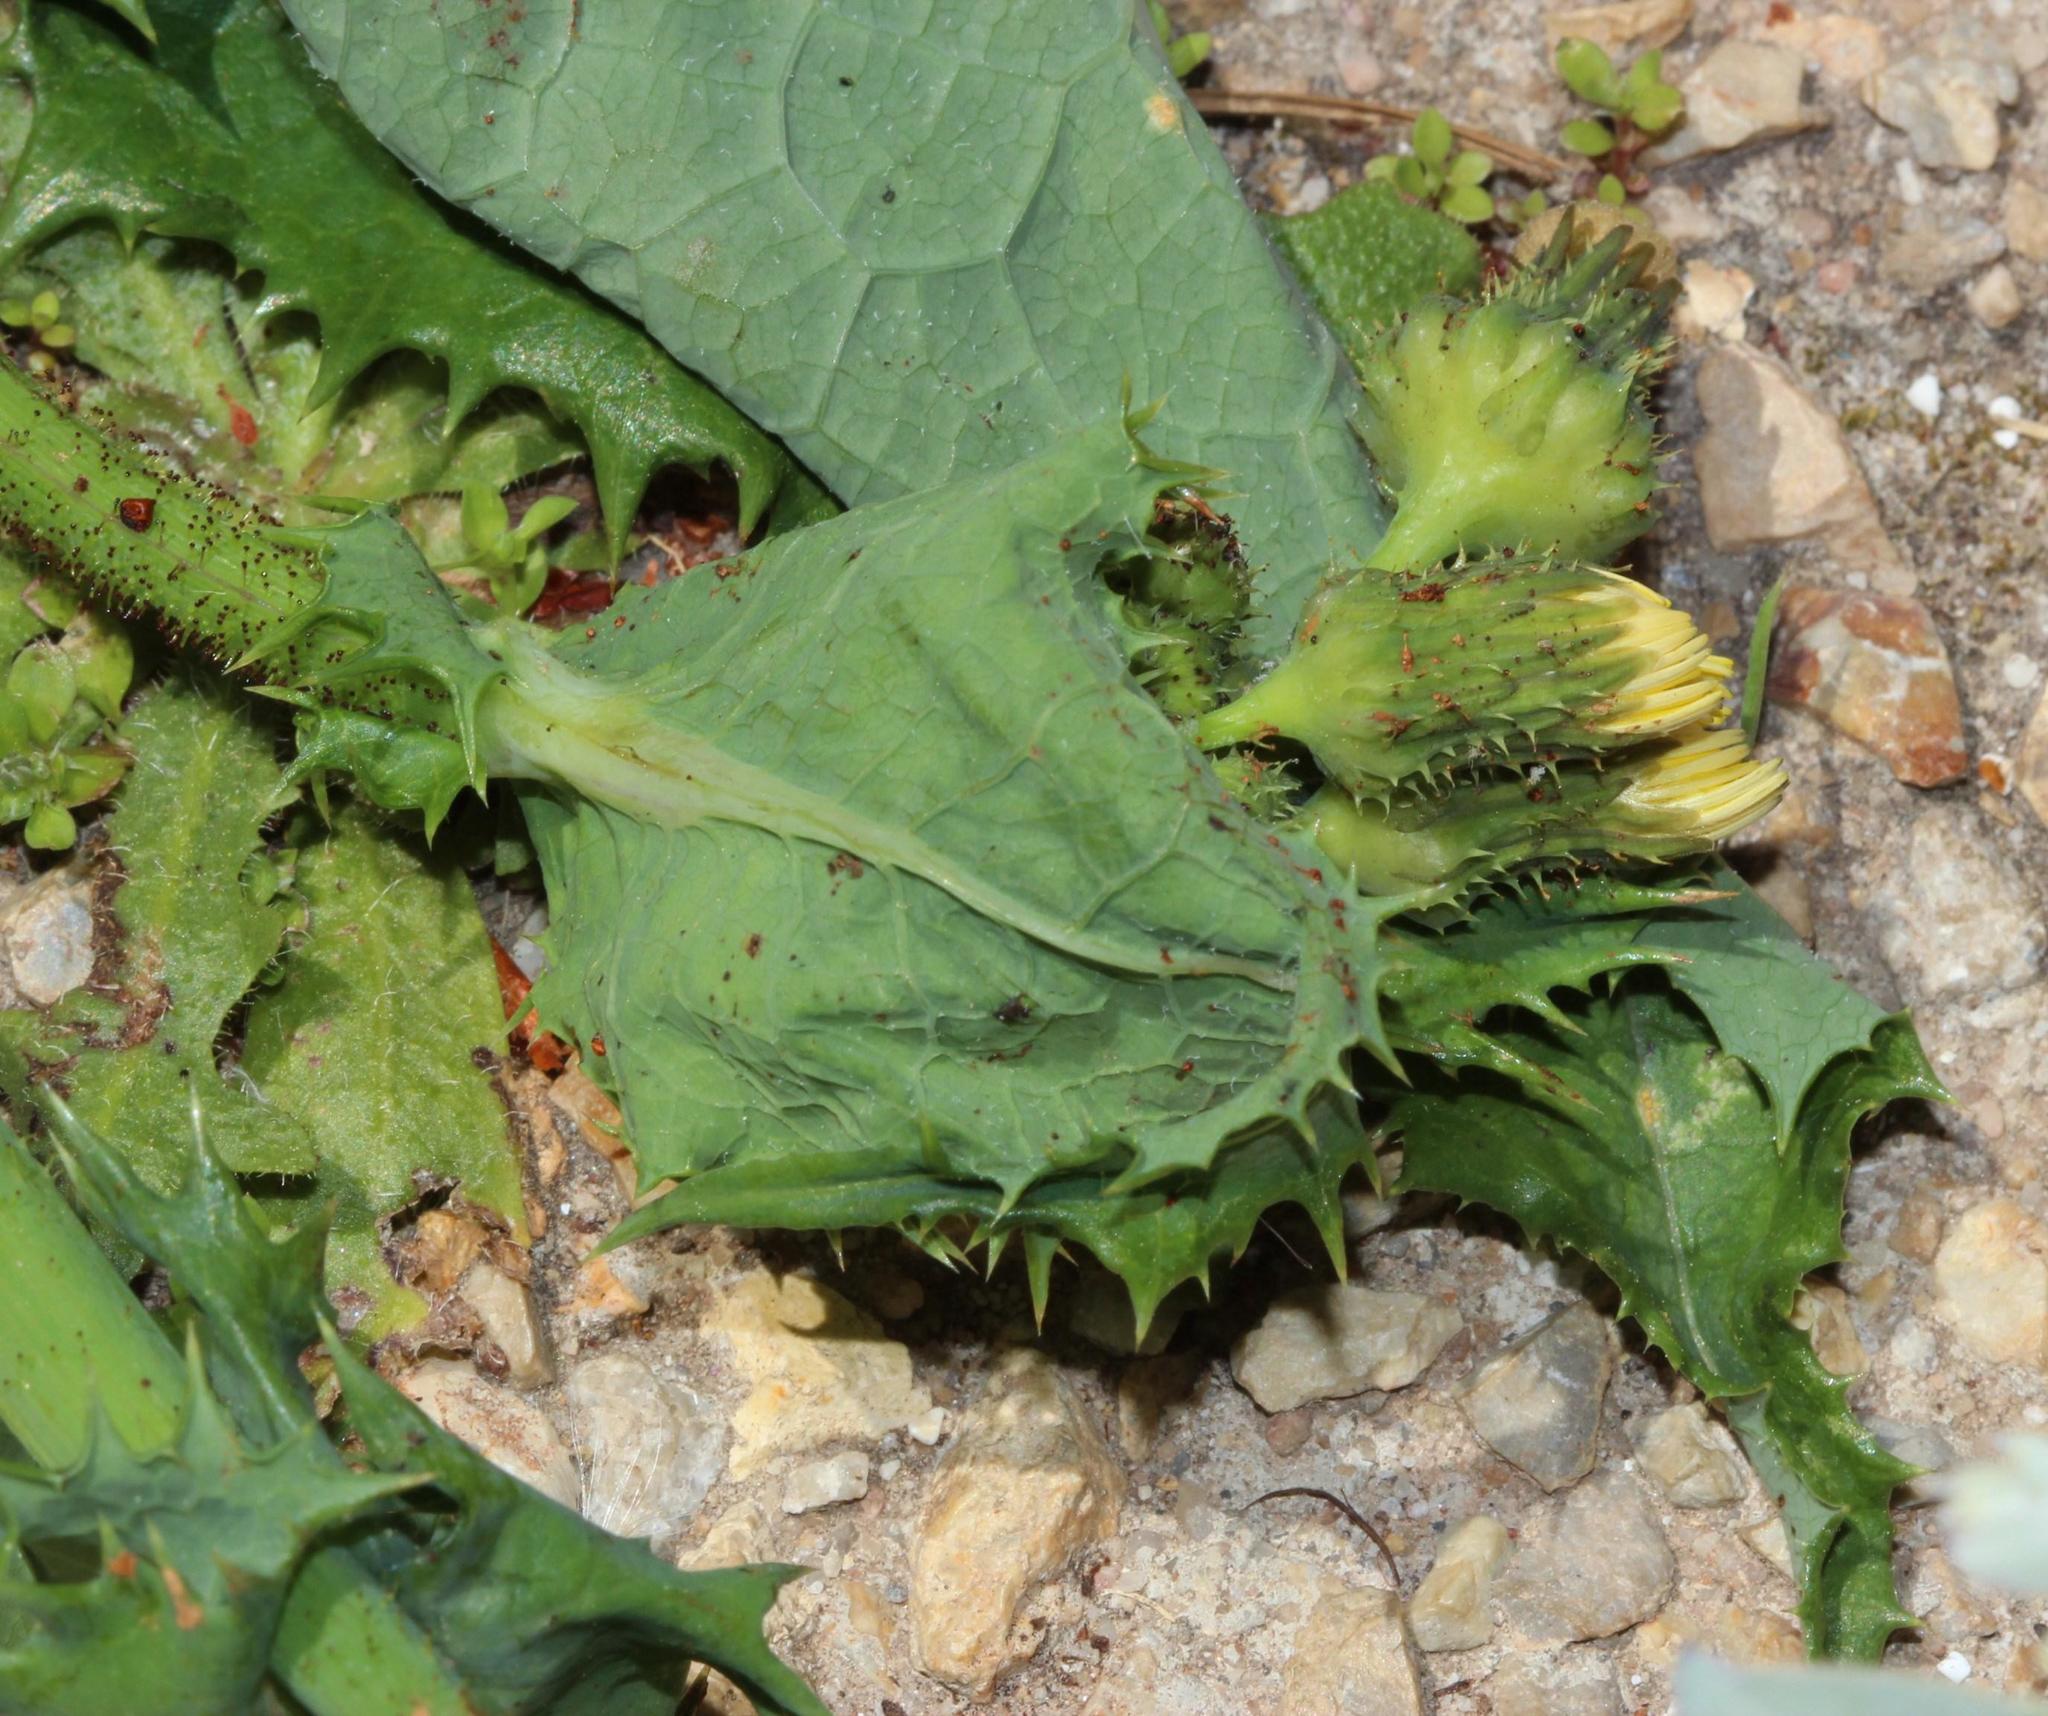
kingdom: Plantae
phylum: Tracheophyta
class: Magnoliopsida
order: Asterales
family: Asteraceae
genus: Sonchus
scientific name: Sonchus asper
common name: Prickly sow-thistle
